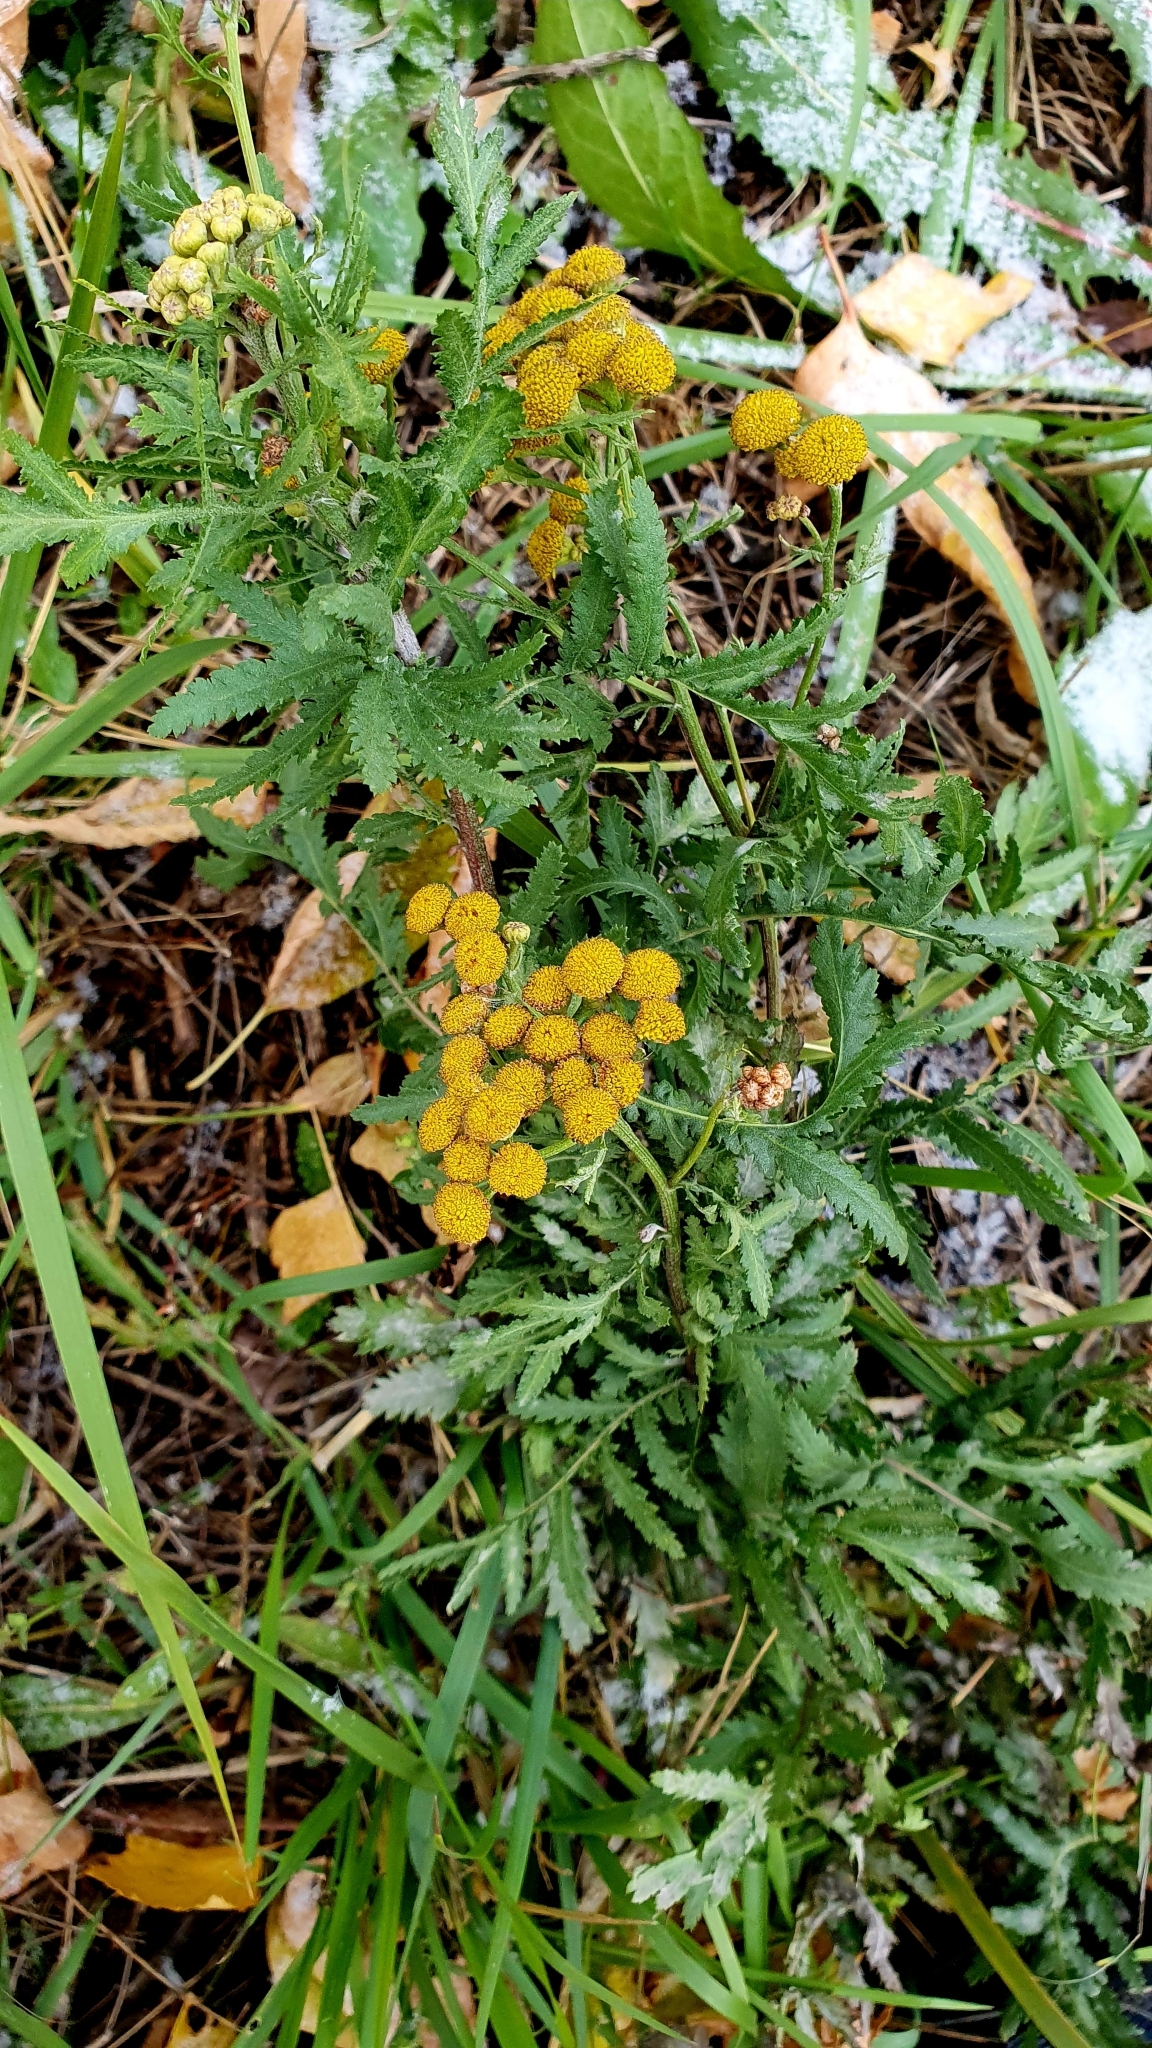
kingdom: Plantae
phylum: Tracheophyta
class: Magnoliopsida
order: Asterales
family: Asteraceae
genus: Tanacetum
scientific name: Tanacetum vulgare
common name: Common tansy
